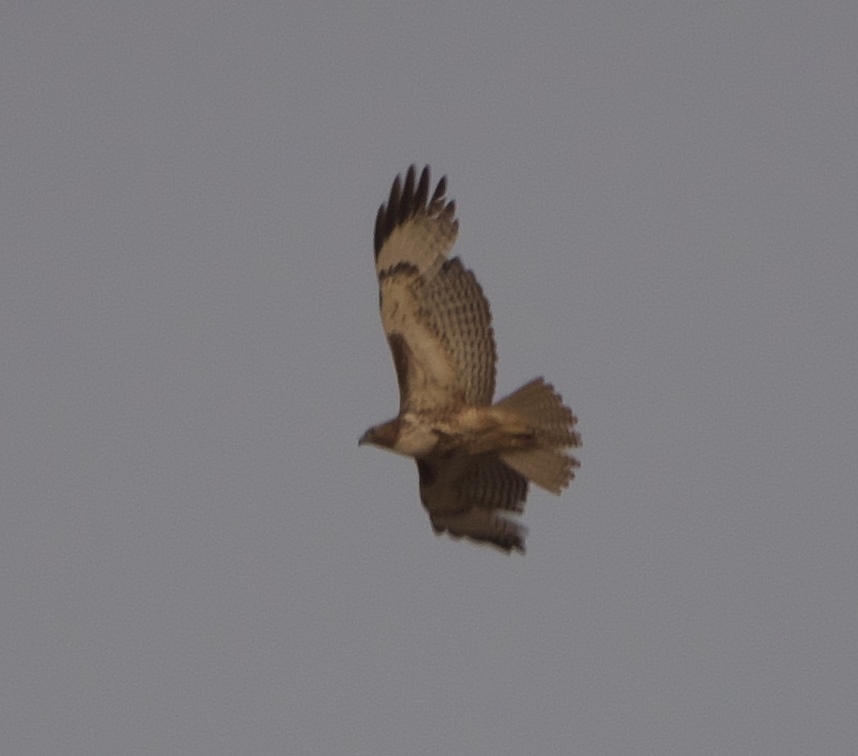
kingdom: Animalia
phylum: Chordata
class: Aves
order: Accipitriformes
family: Accipitridae
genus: Buteo
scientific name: Buteo jamaicensis
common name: Red-tailed hawk
